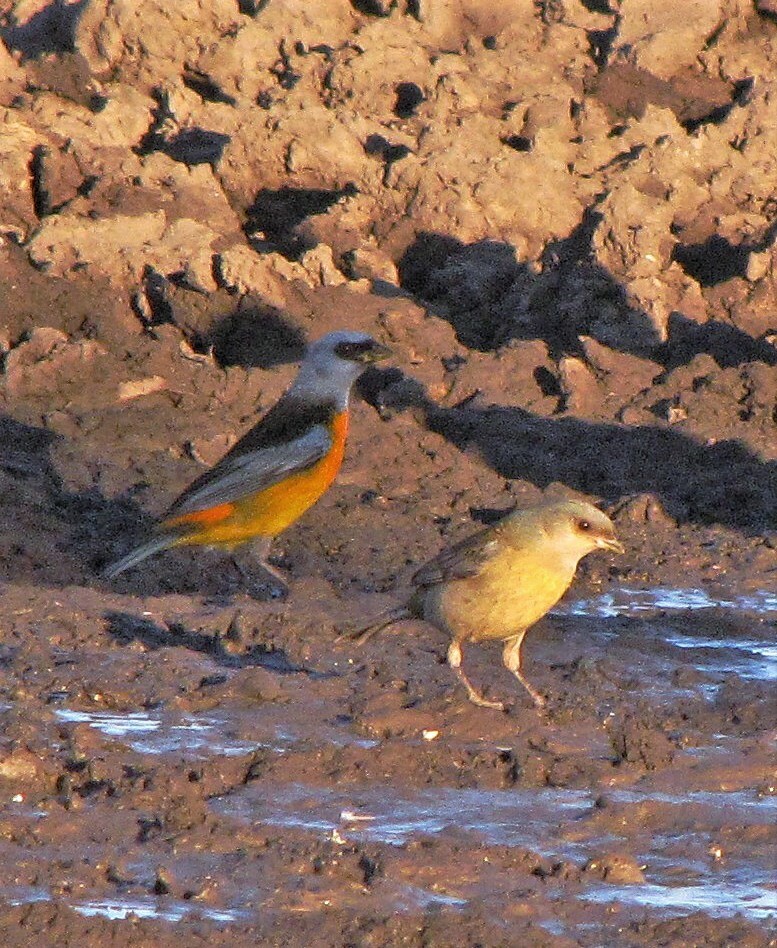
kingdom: Animalia
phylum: Chordata
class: Aves
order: Passeriformes
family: Thraupidae
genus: Rauenia
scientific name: Rauenia bonariensis
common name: Blue-and-yellow tanager
